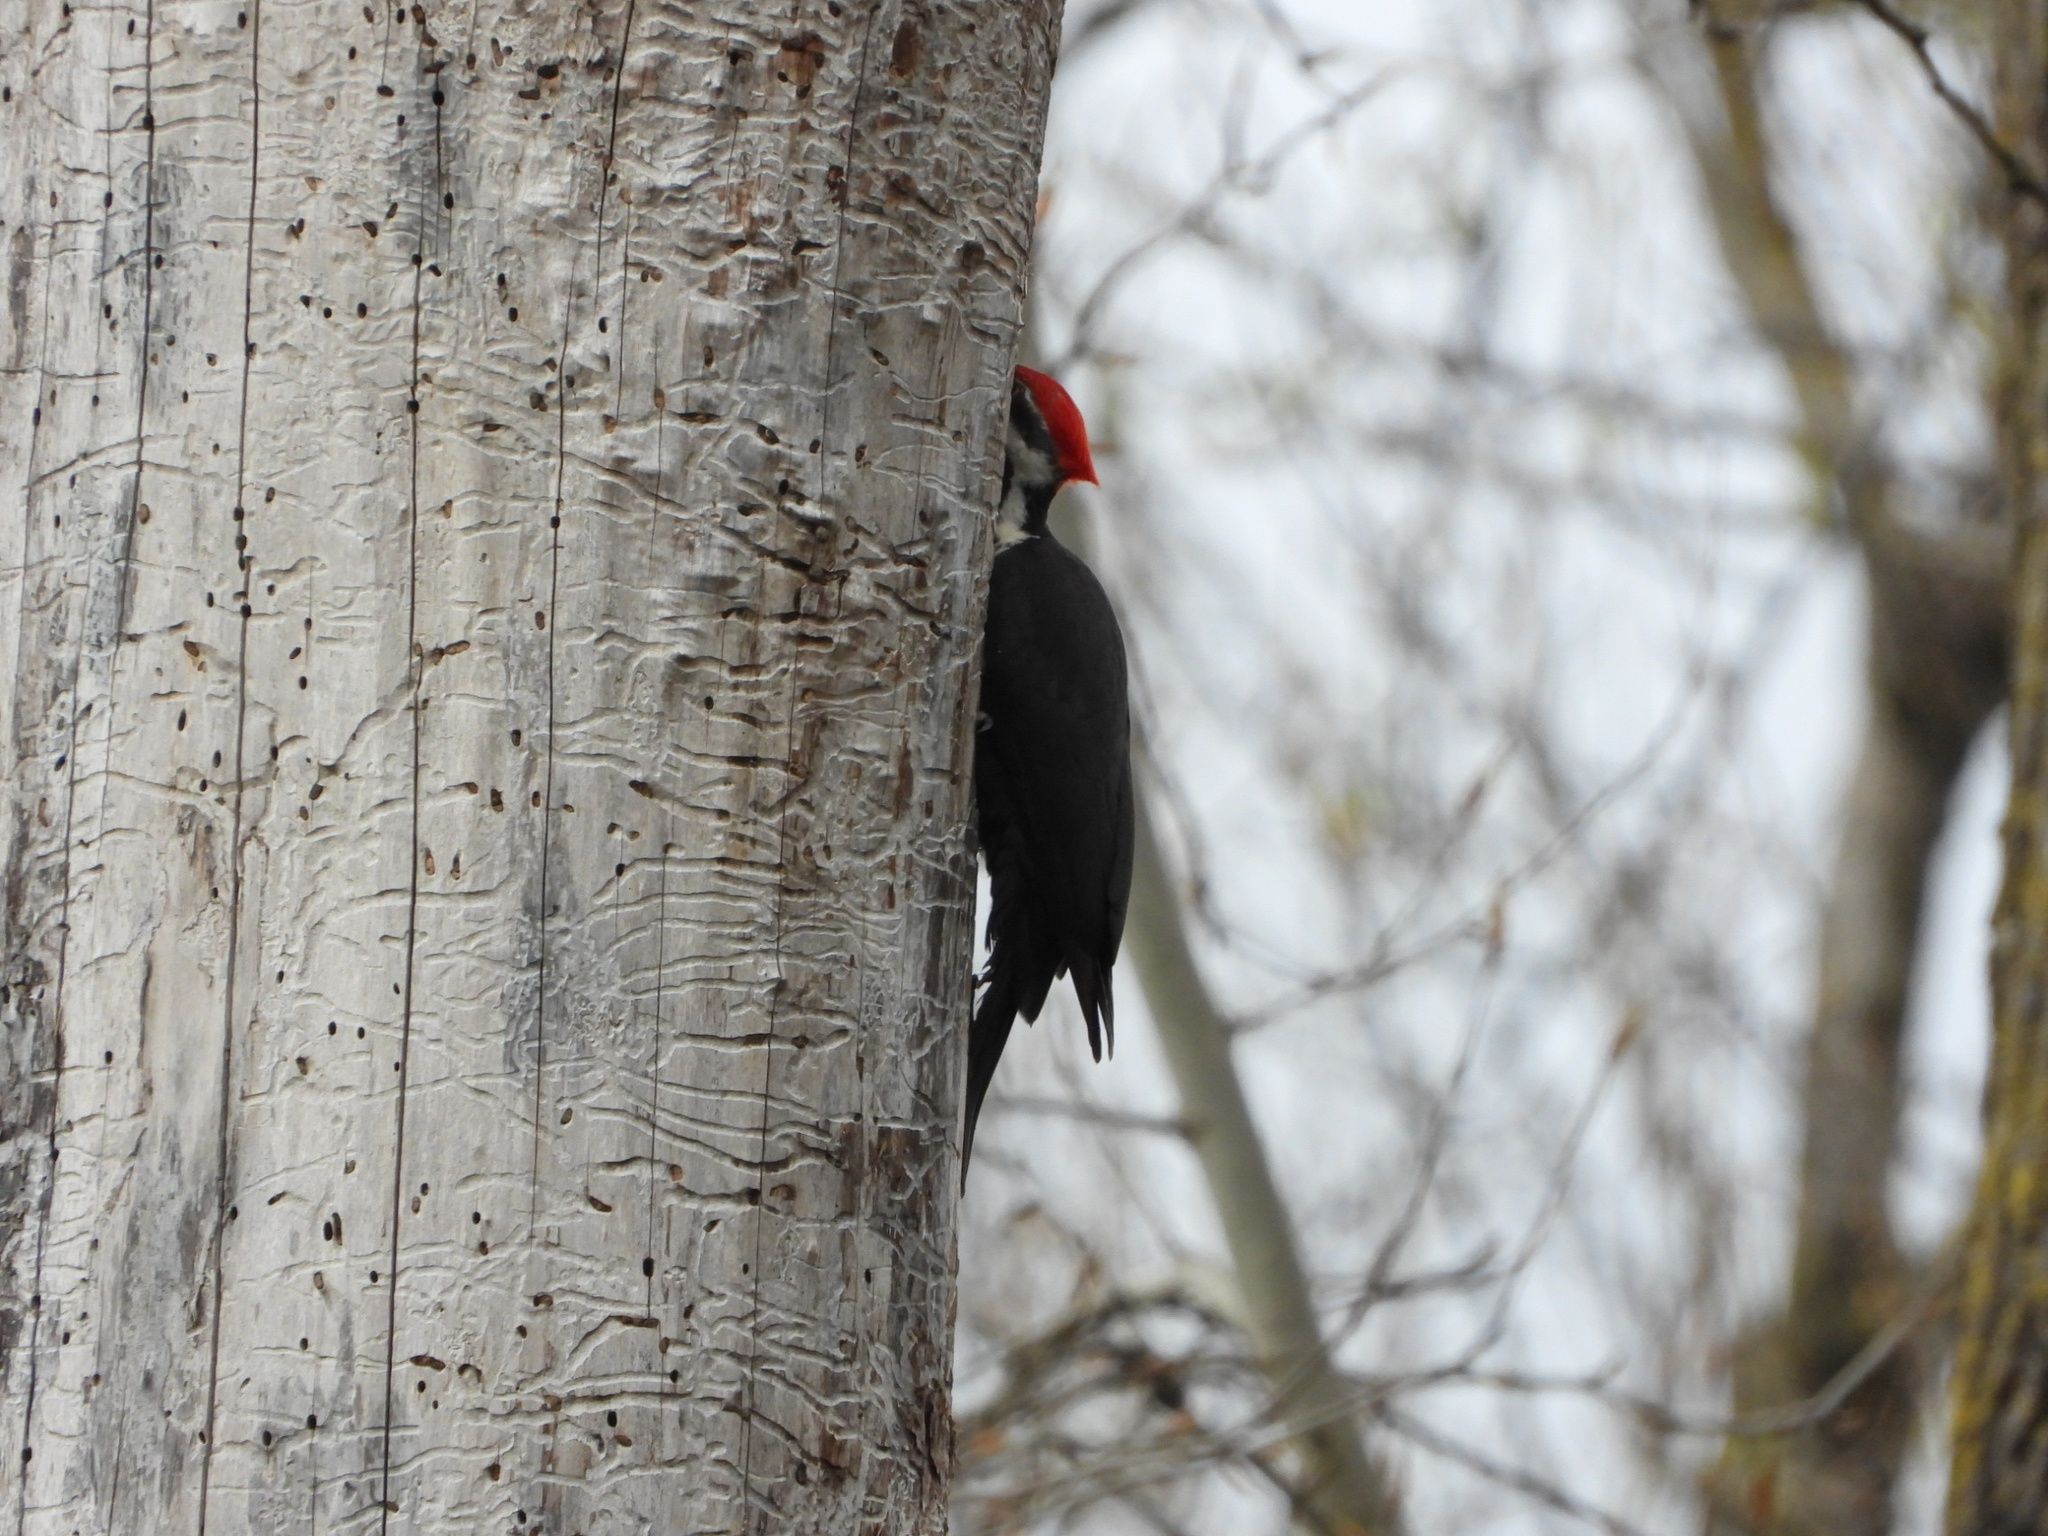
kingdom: Animalia
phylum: Chordata
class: Aves
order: Piciformes
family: Picidae
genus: Dryocopus
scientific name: Dryocopus pileatus
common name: Pileated woodpecker
